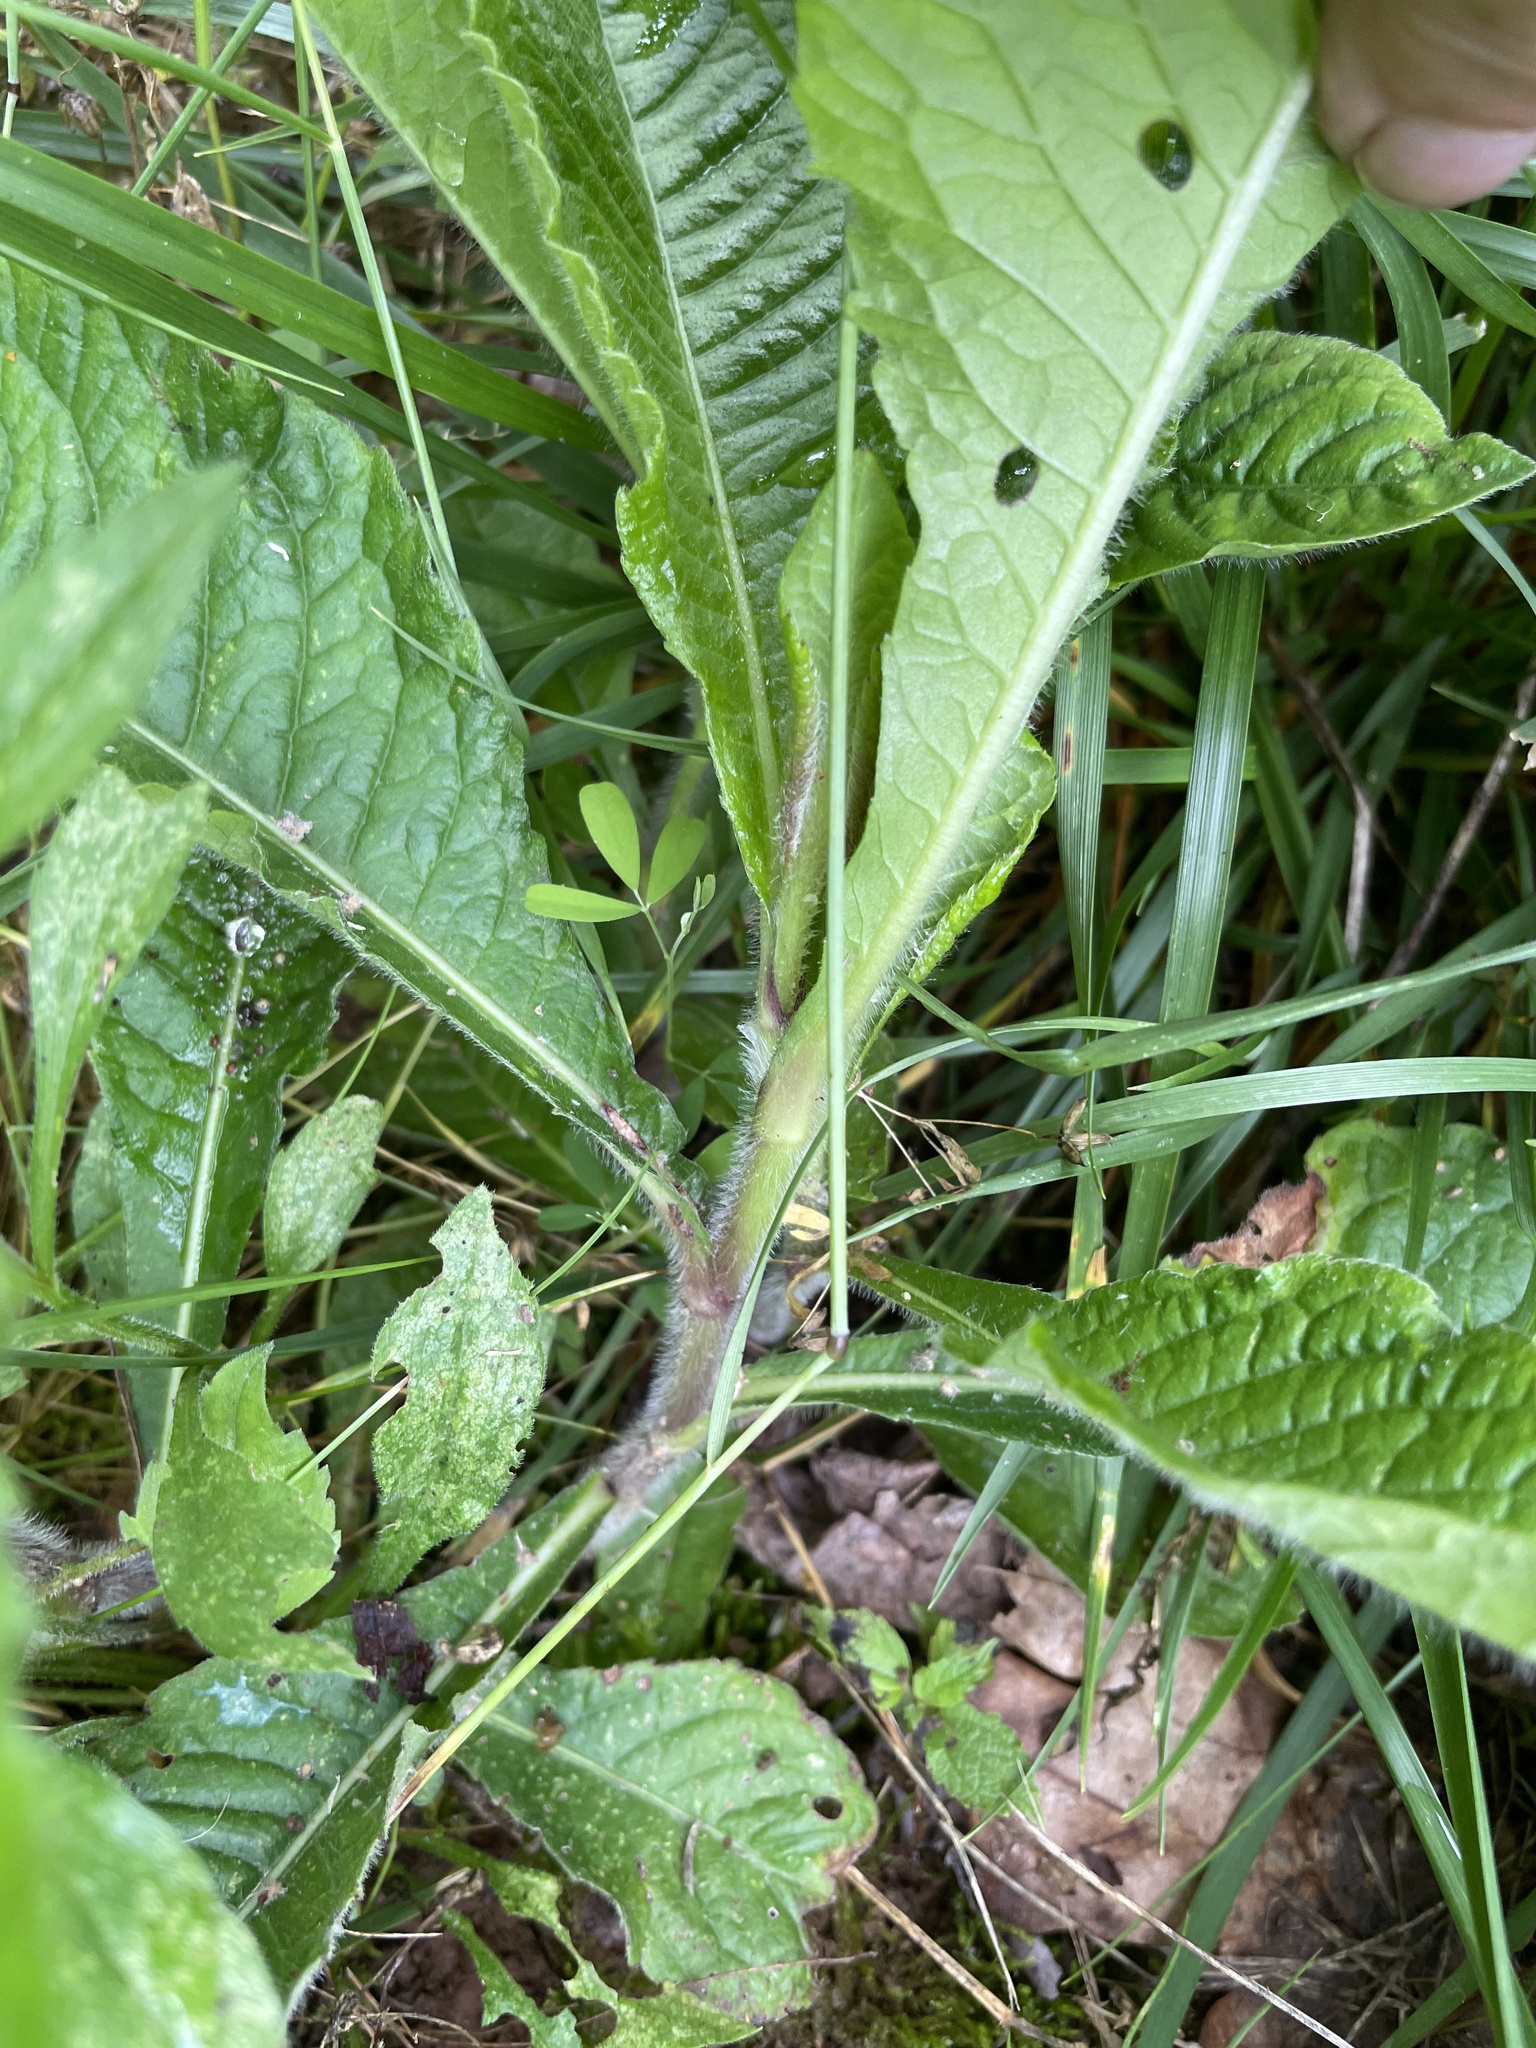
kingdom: Plantae
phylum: Tracheophyta
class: Magnoliopsida
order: Asterales
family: Asteraceae
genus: Elephantopus
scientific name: Elephantopus carolinianus
